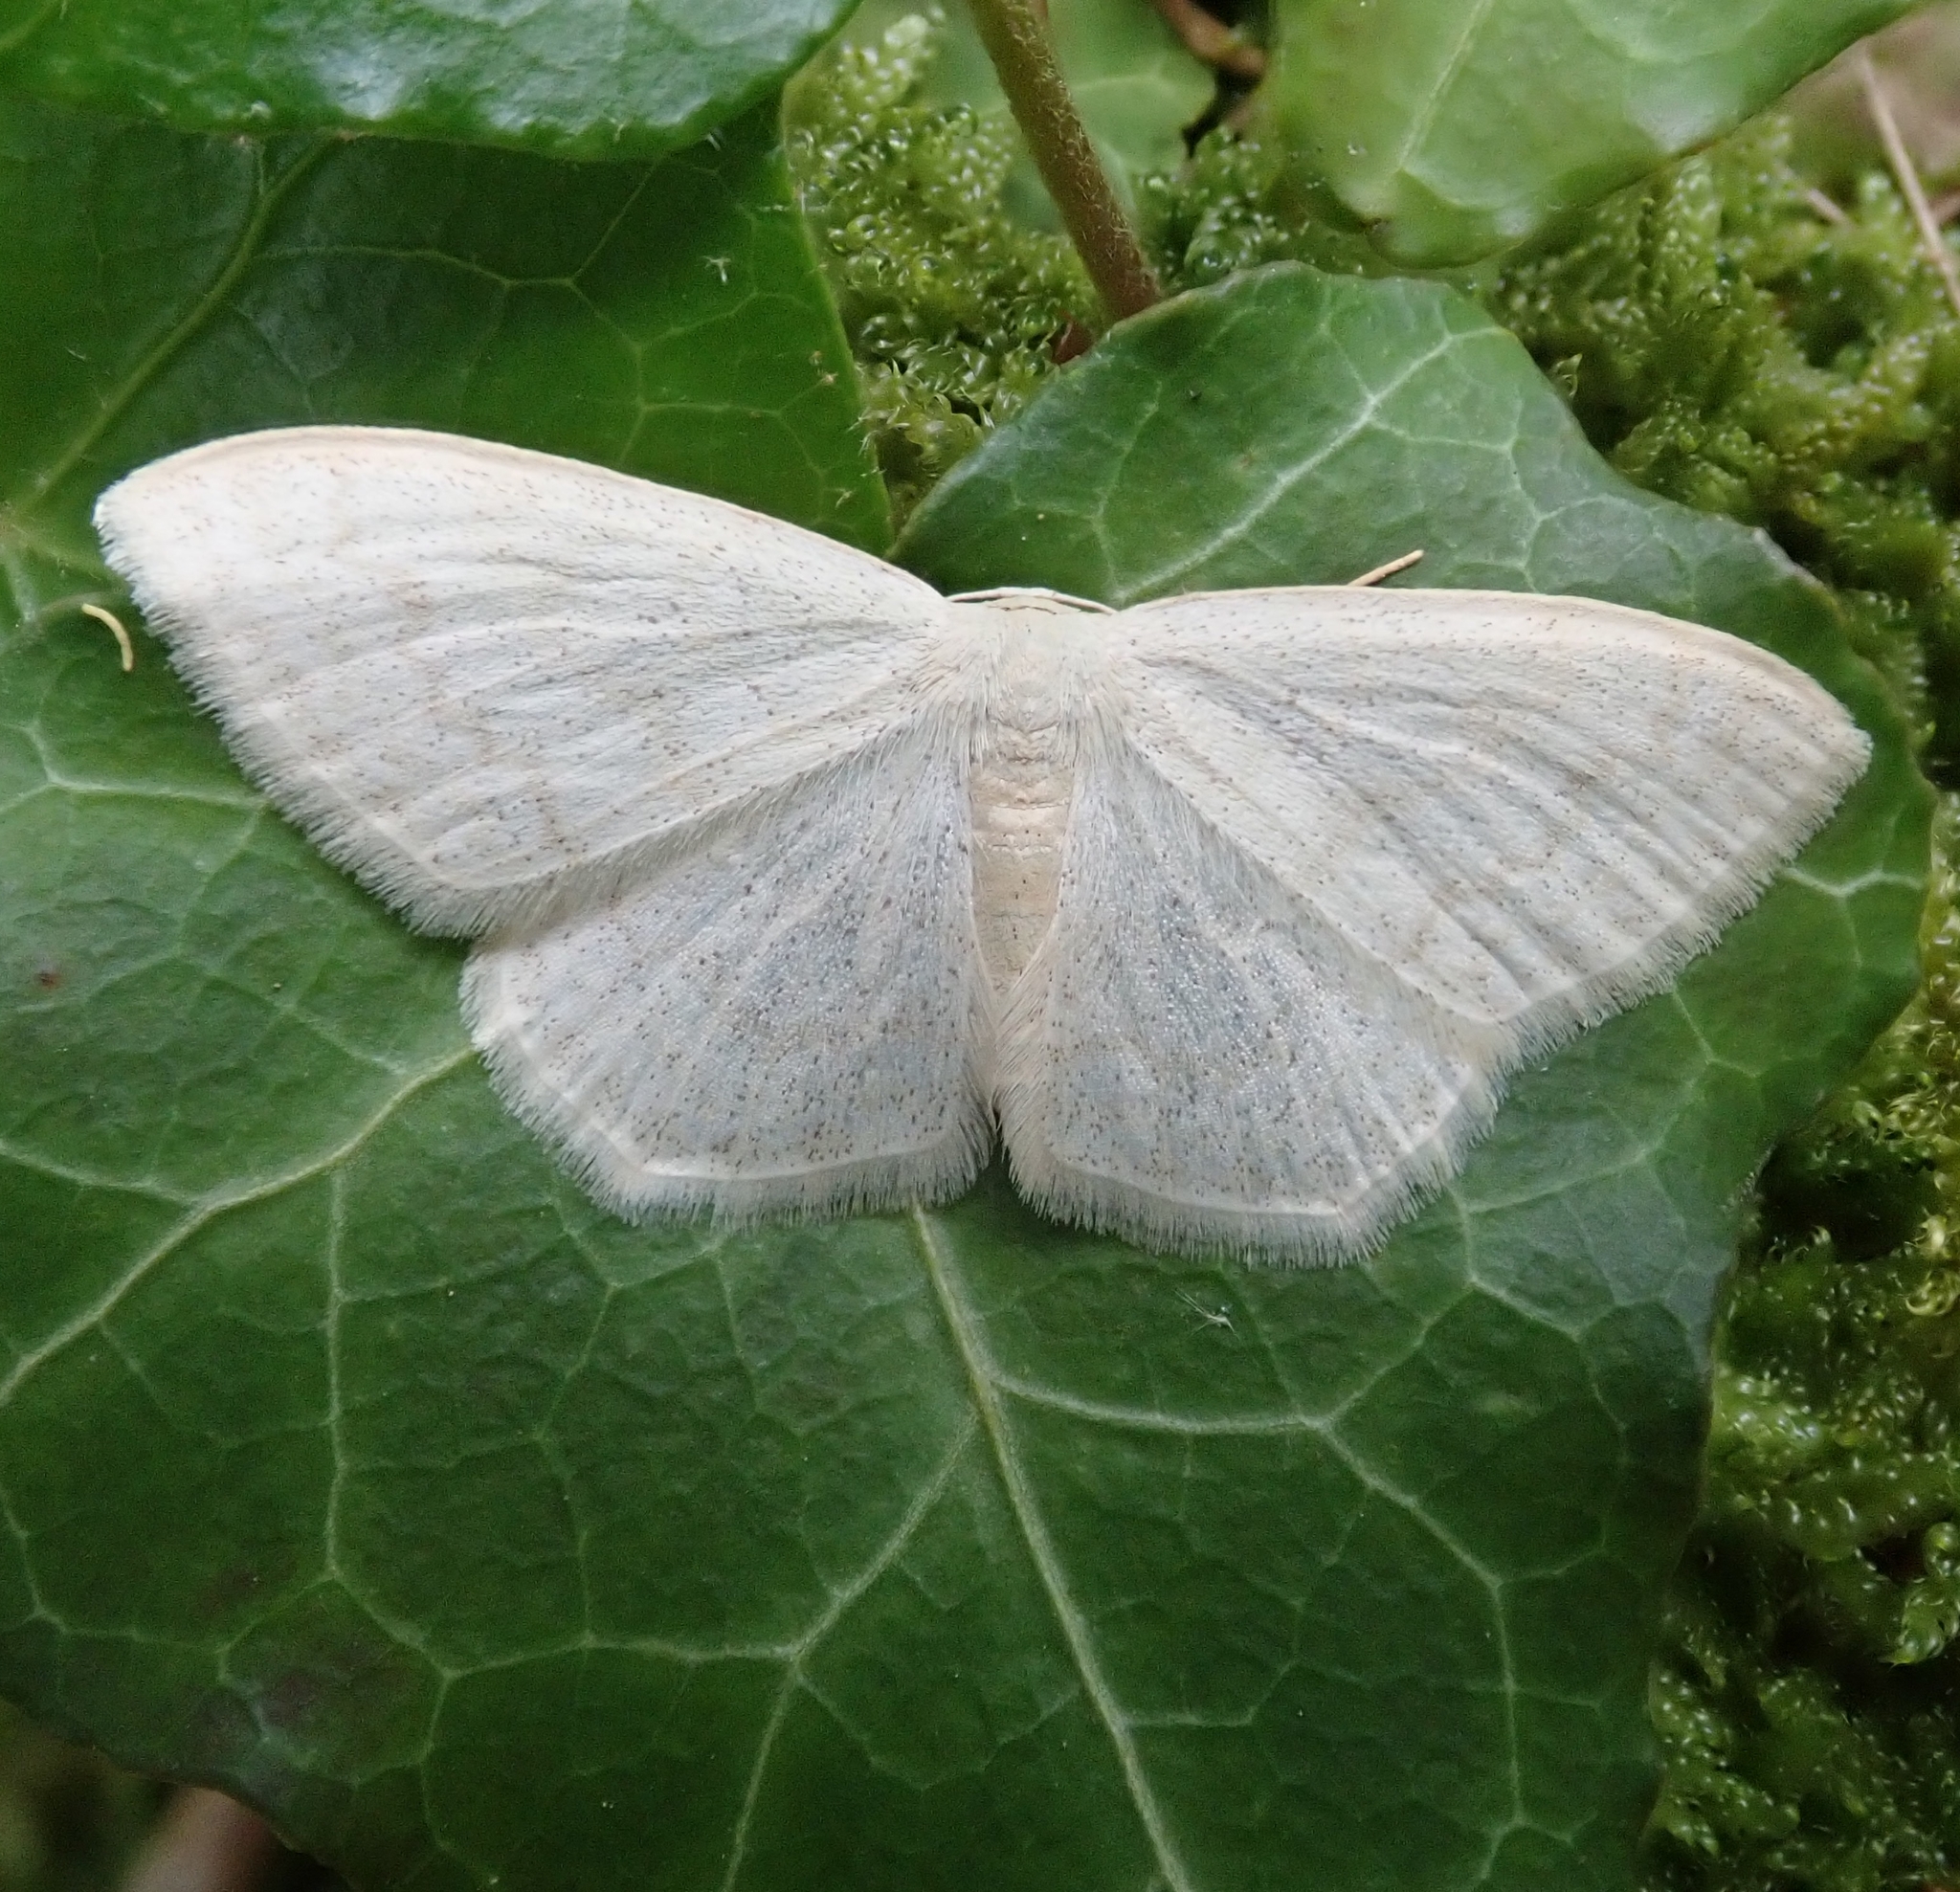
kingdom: Animalia
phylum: Arthropoda
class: Insecta
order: Lepidoptera
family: Geometridae
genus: Scopula
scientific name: Scopula floslactata
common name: Cream wave
